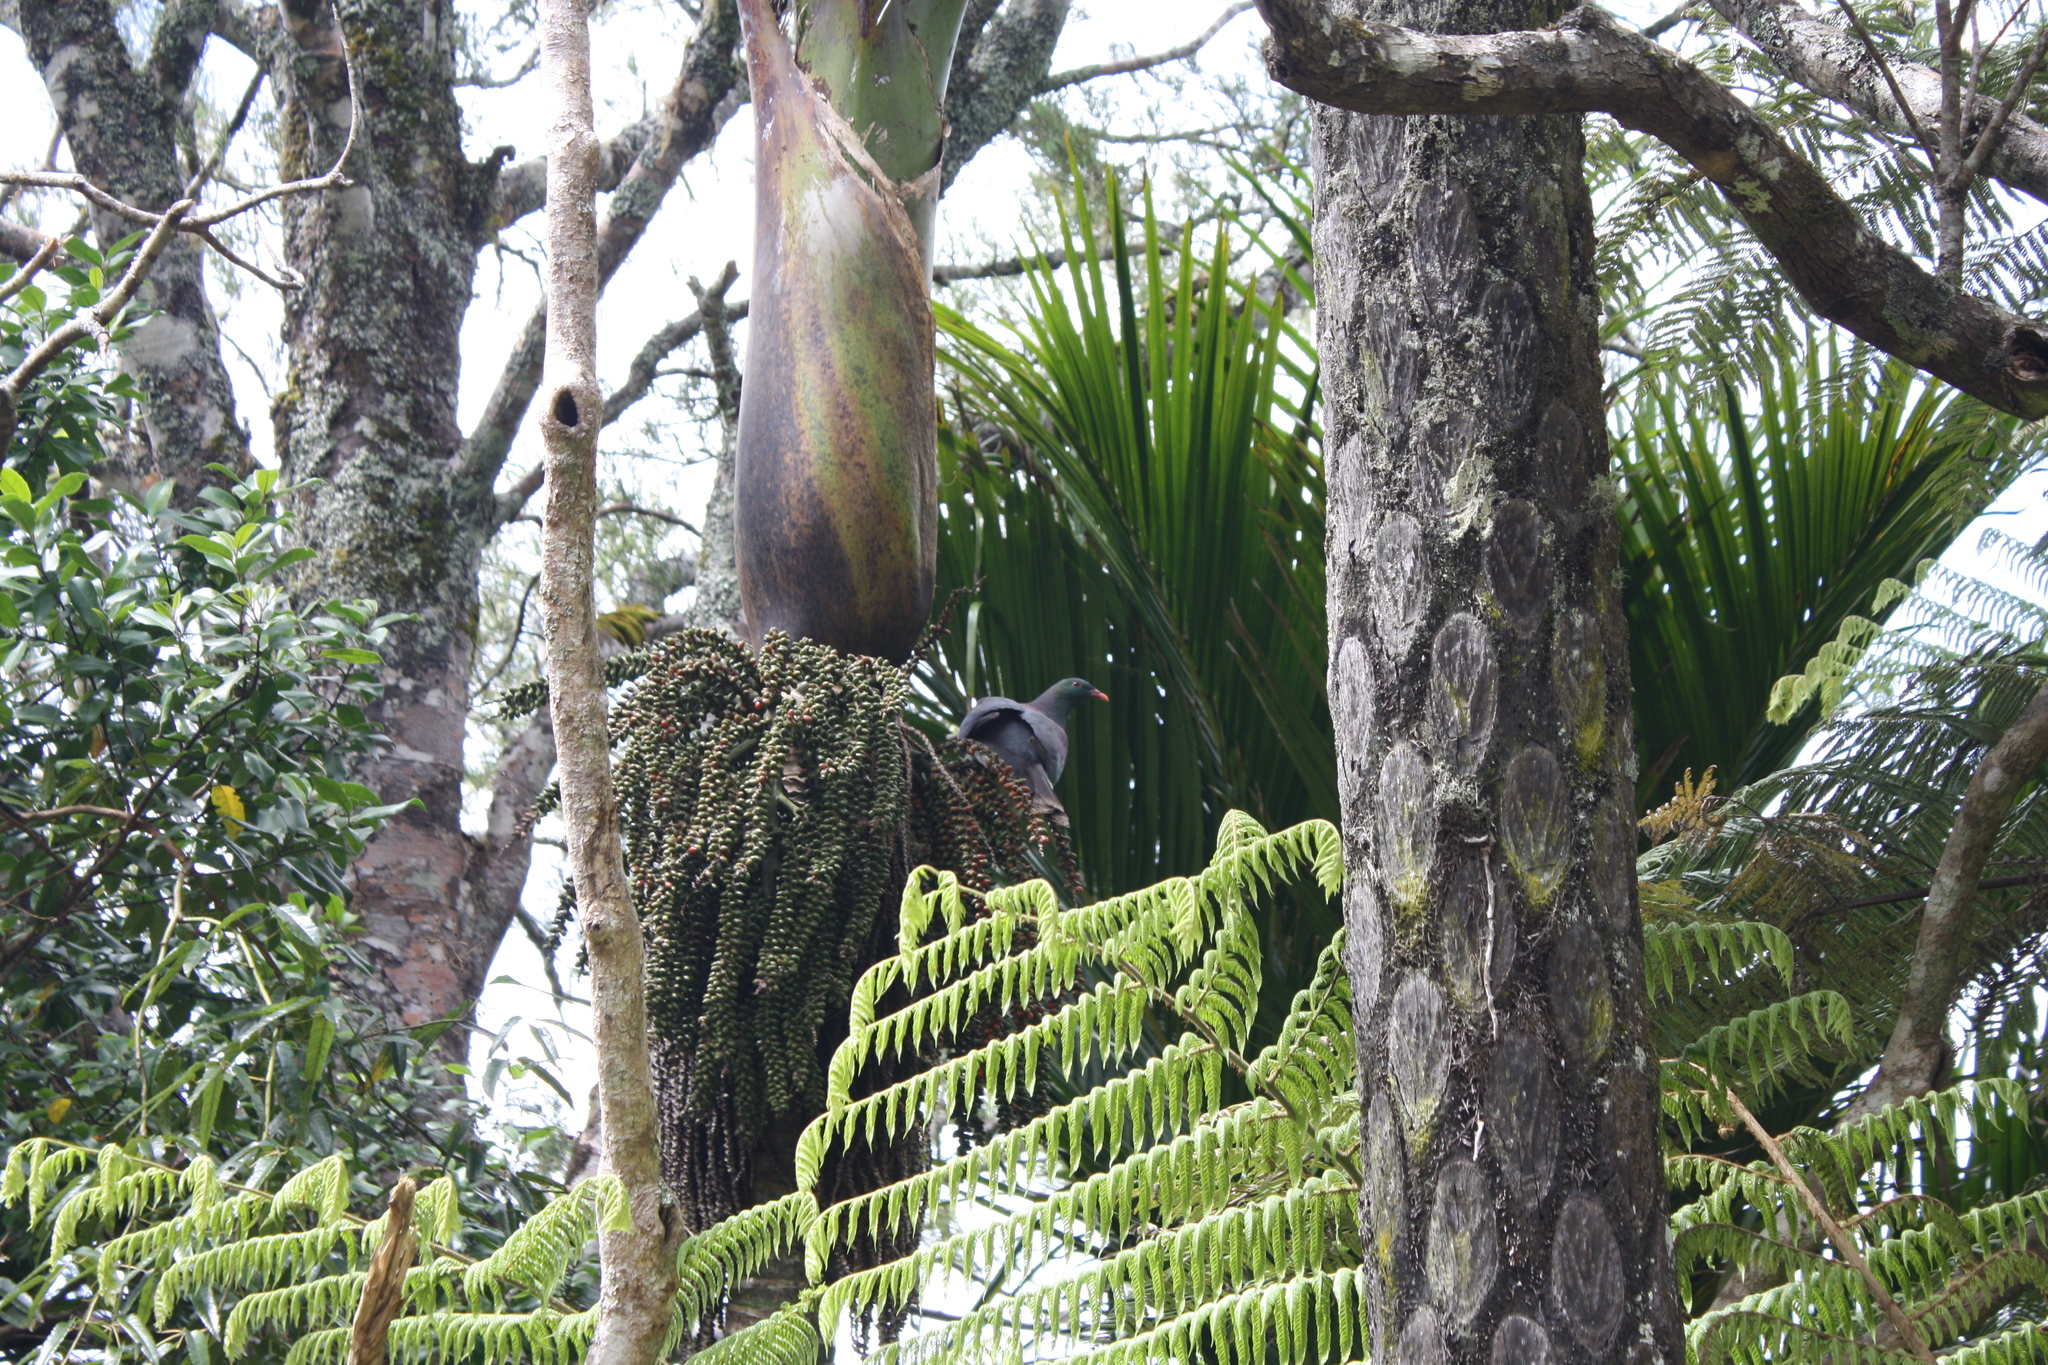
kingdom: Animalia
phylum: Chordata
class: Aves
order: Columbiformes
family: Columbidae
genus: Hemiphaga
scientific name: Hemiphaga novaeseelandiae
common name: New zealand pigeon
